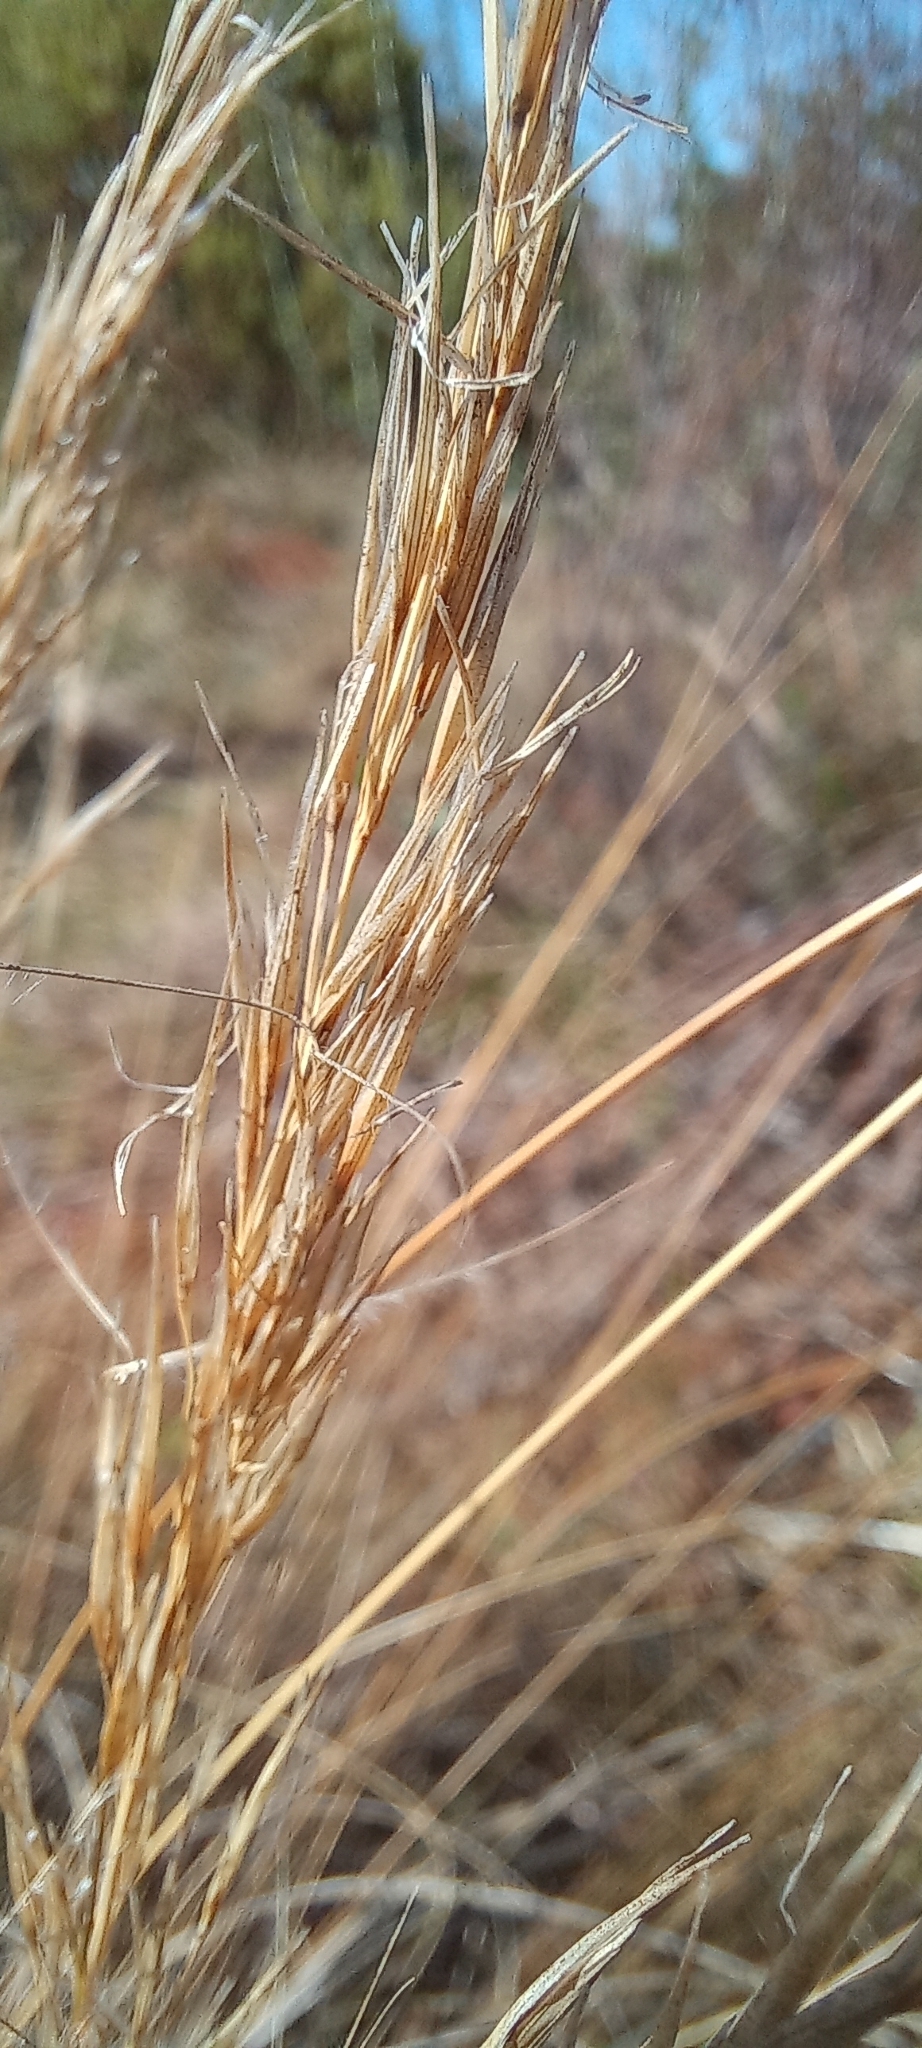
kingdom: Plantae
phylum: Tracheophyta
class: Liliopsida
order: Poales
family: Poaceae
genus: Stipagrostis
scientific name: Stipagrostis zeyheri
